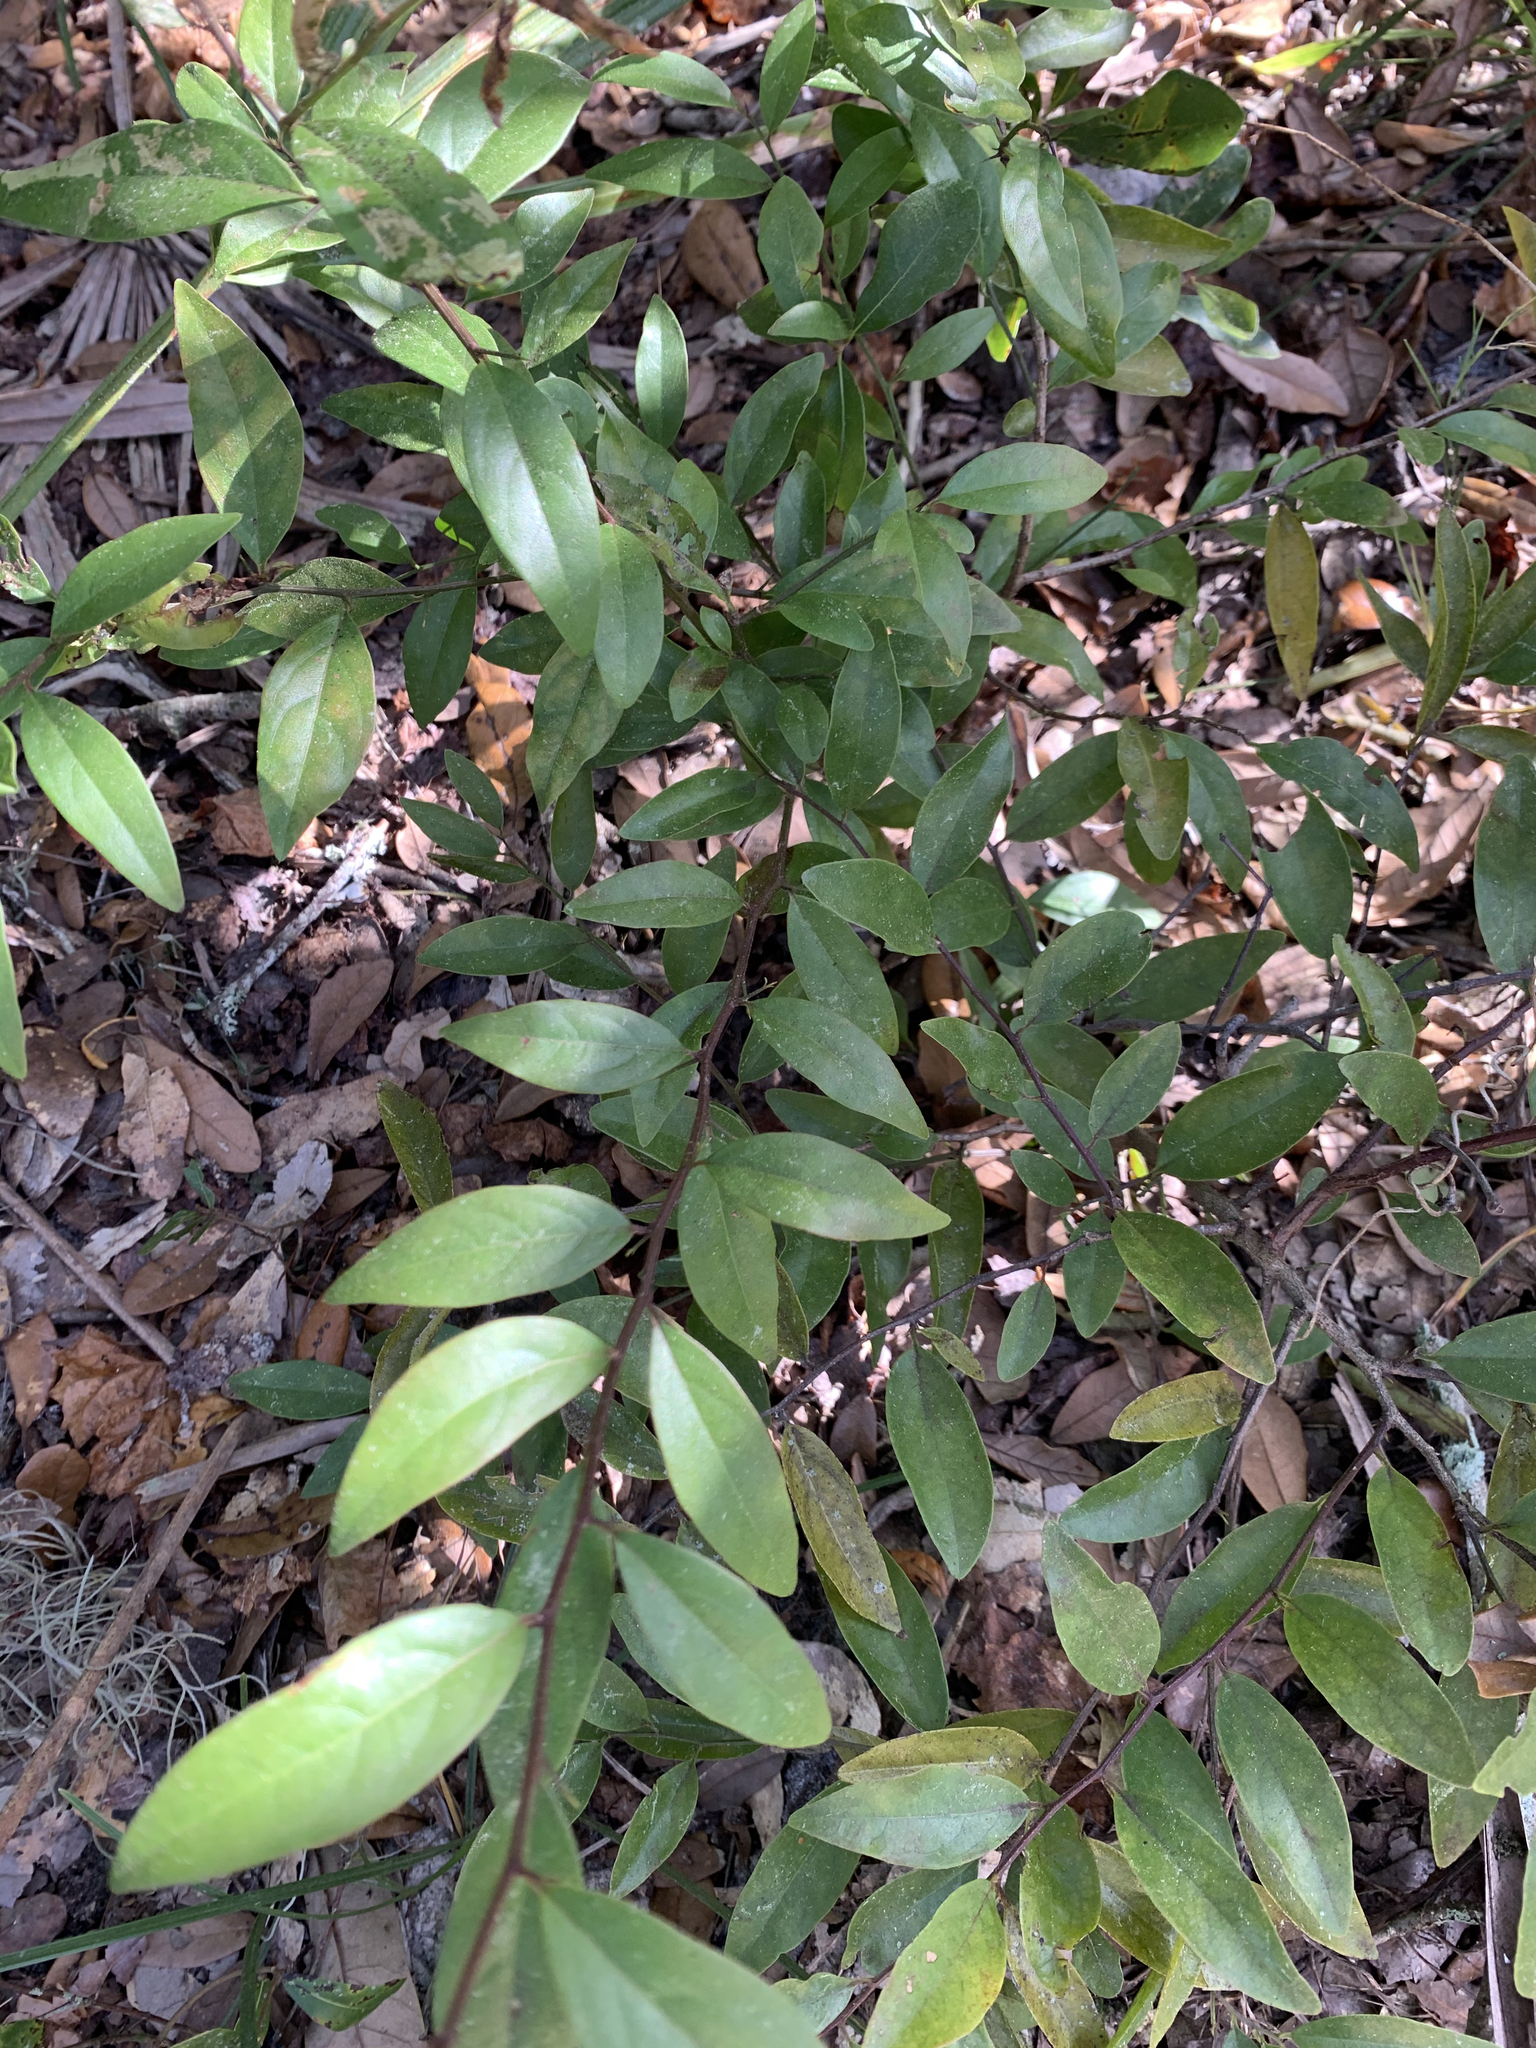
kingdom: Plantae
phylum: Tracheophyta
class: Magnoliopsida
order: Santalales
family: Ximeniaceae
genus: Ximenia
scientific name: Ximenia americana
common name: Tallowwood
